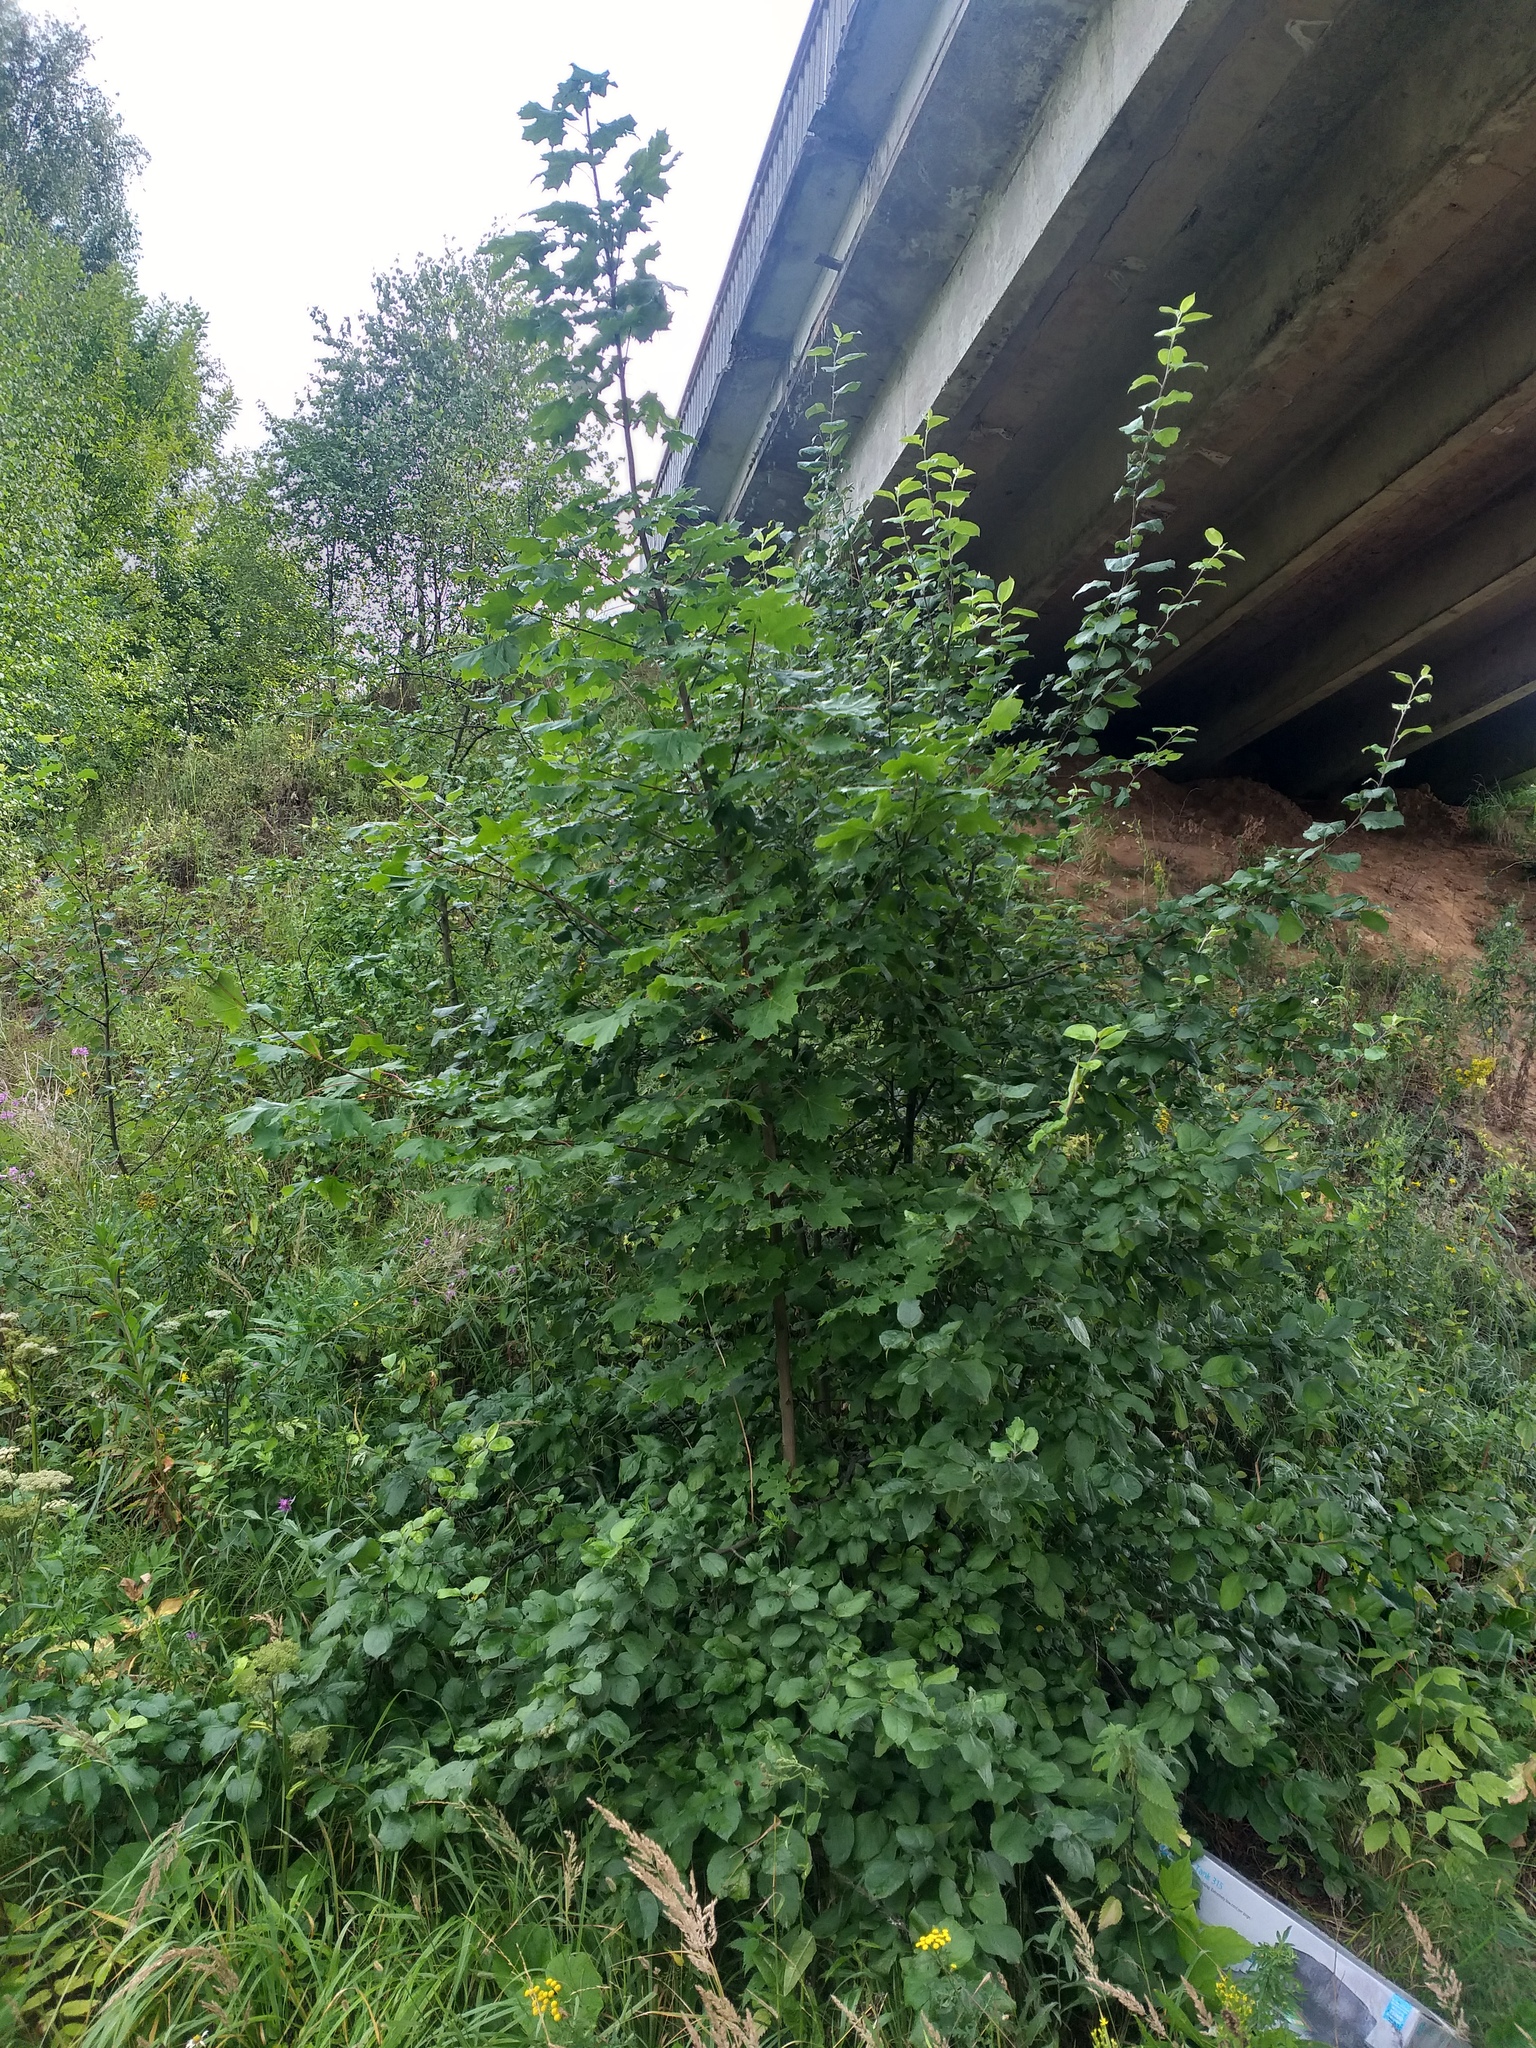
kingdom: Plantae
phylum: Tracheophyta
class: Magnoliopsida
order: Sapindales
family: Sapindaceae
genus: Acer
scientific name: Acer platanoides
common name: Norway maple
